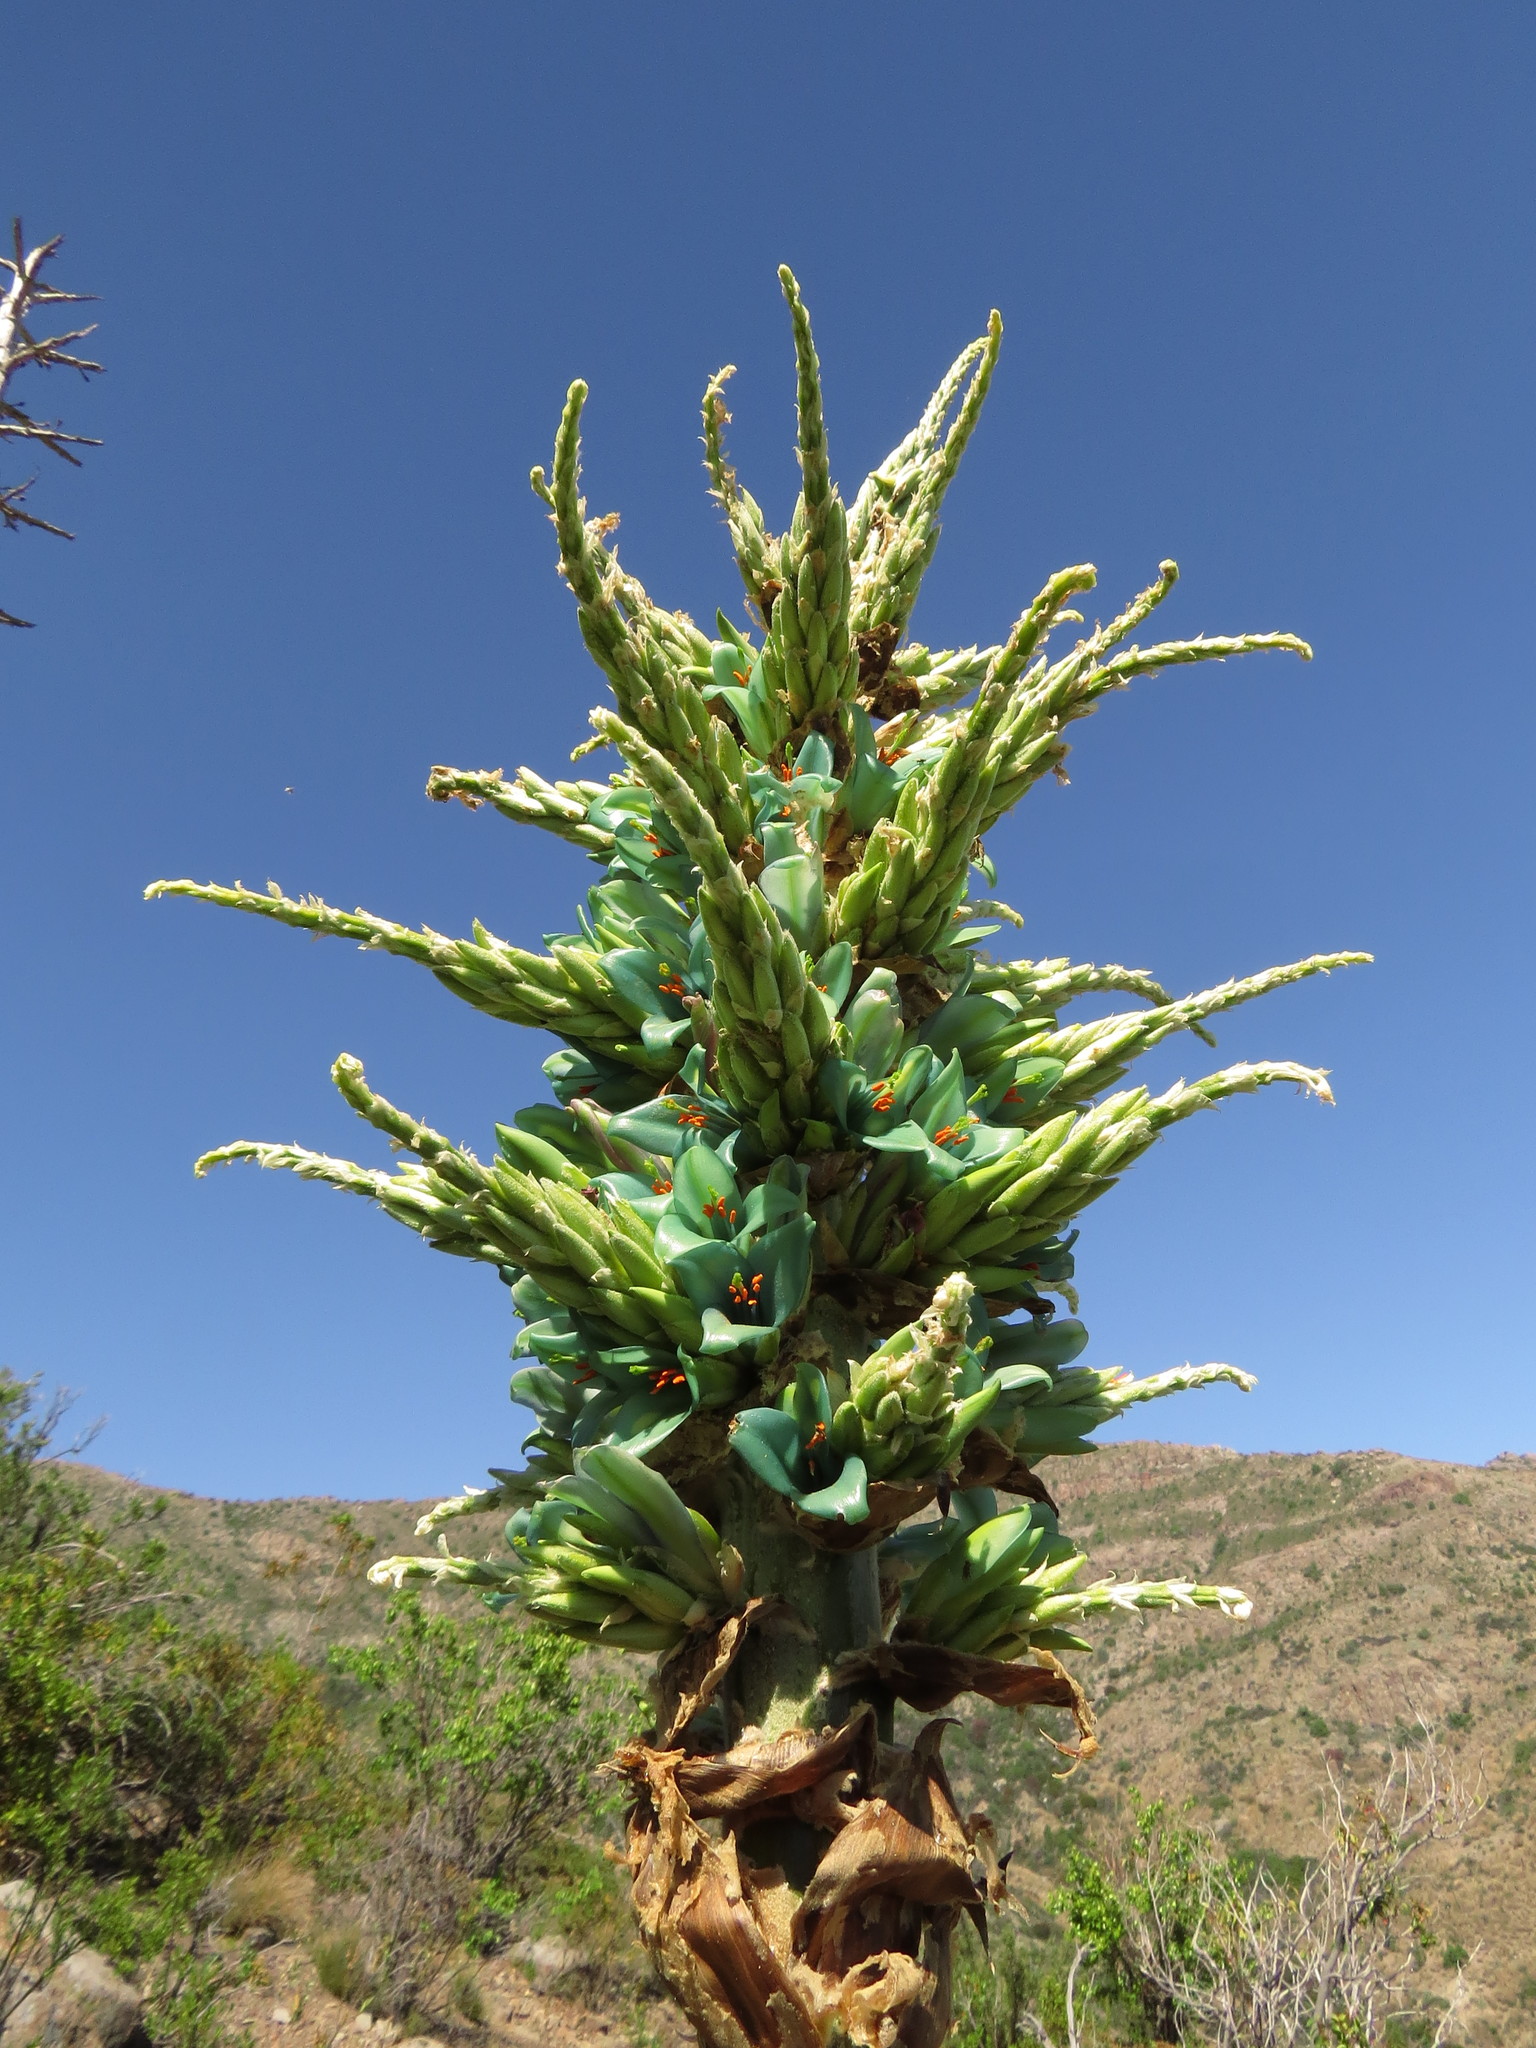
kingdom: Plantae
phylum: Tracheophyta
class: Liliopsida
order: Poales
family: Bromeliaceae
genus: Puya
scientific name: Puya alpestris
